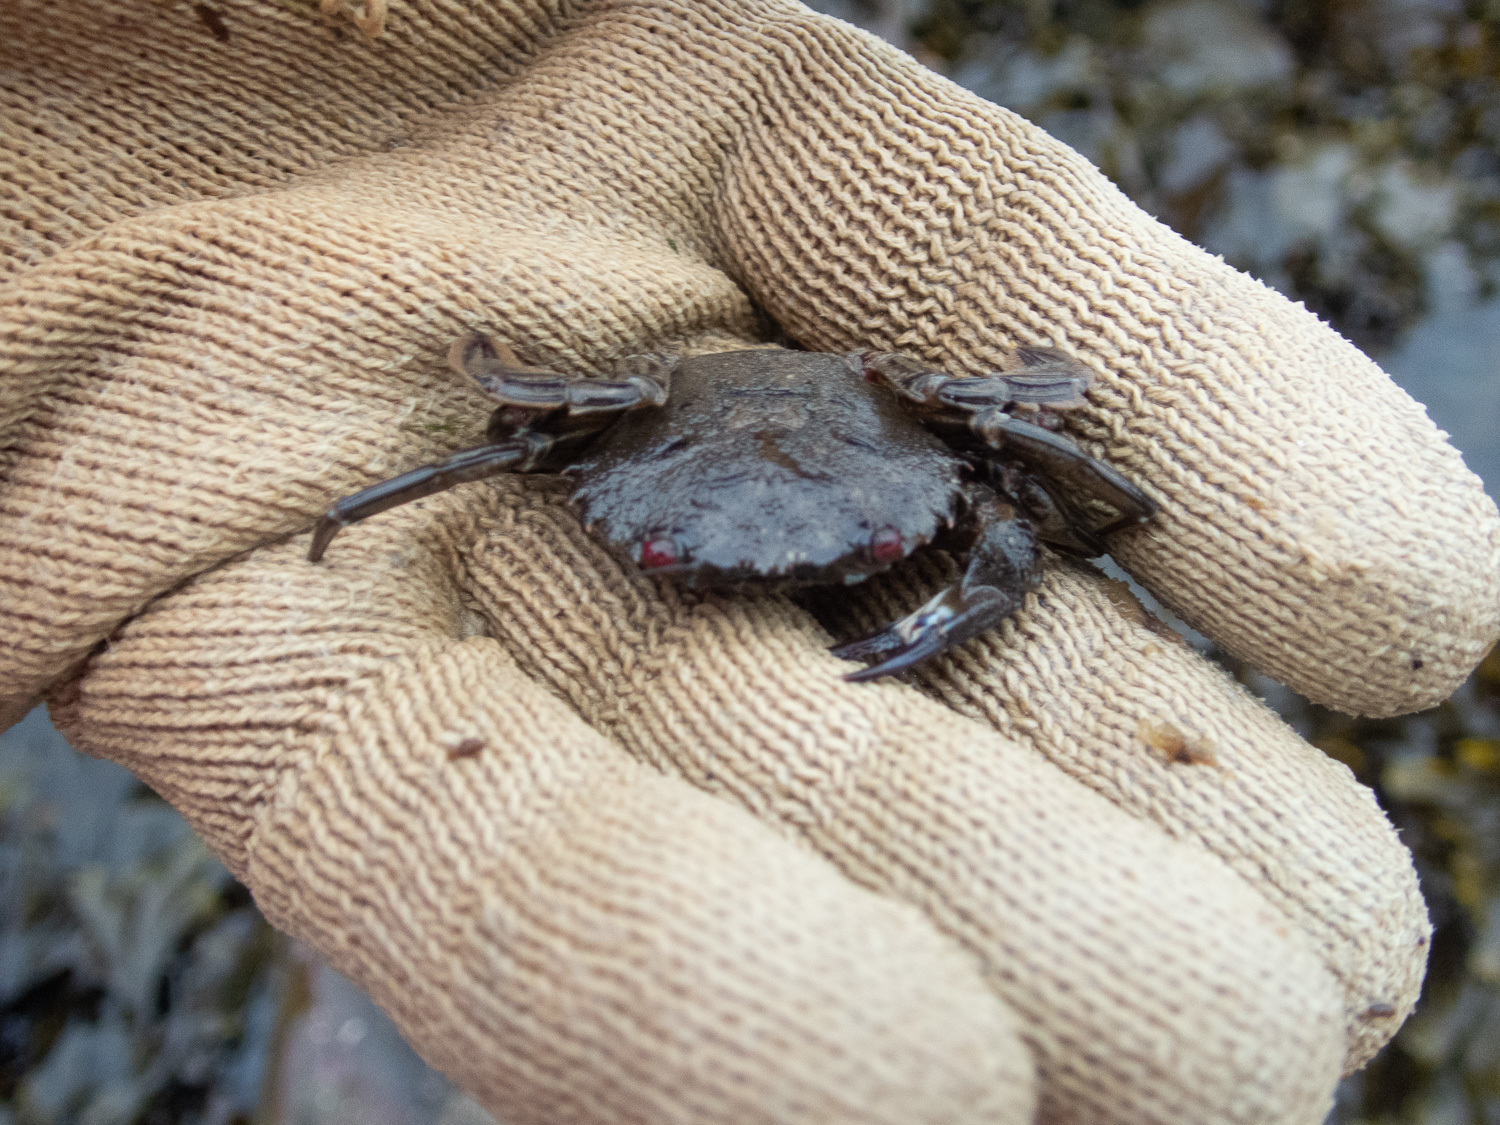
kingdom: Animalia
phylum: Arthropoda
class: Malacostraca
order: Decapoda
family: Polybiidae
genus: Necora
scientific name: Necora puber
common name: Velvet swimming crab
